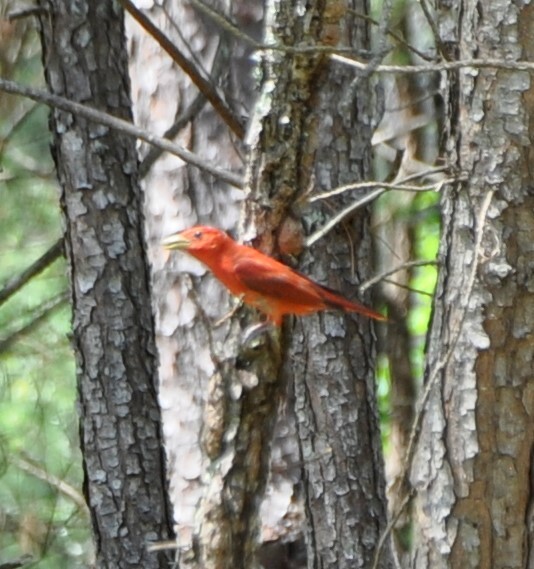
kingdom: Animalia
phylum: Chordata
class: Aves
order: Passeriformes
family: Cardinalidae
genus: Piranga
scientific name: Piranga rubra
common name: Summer tanager
